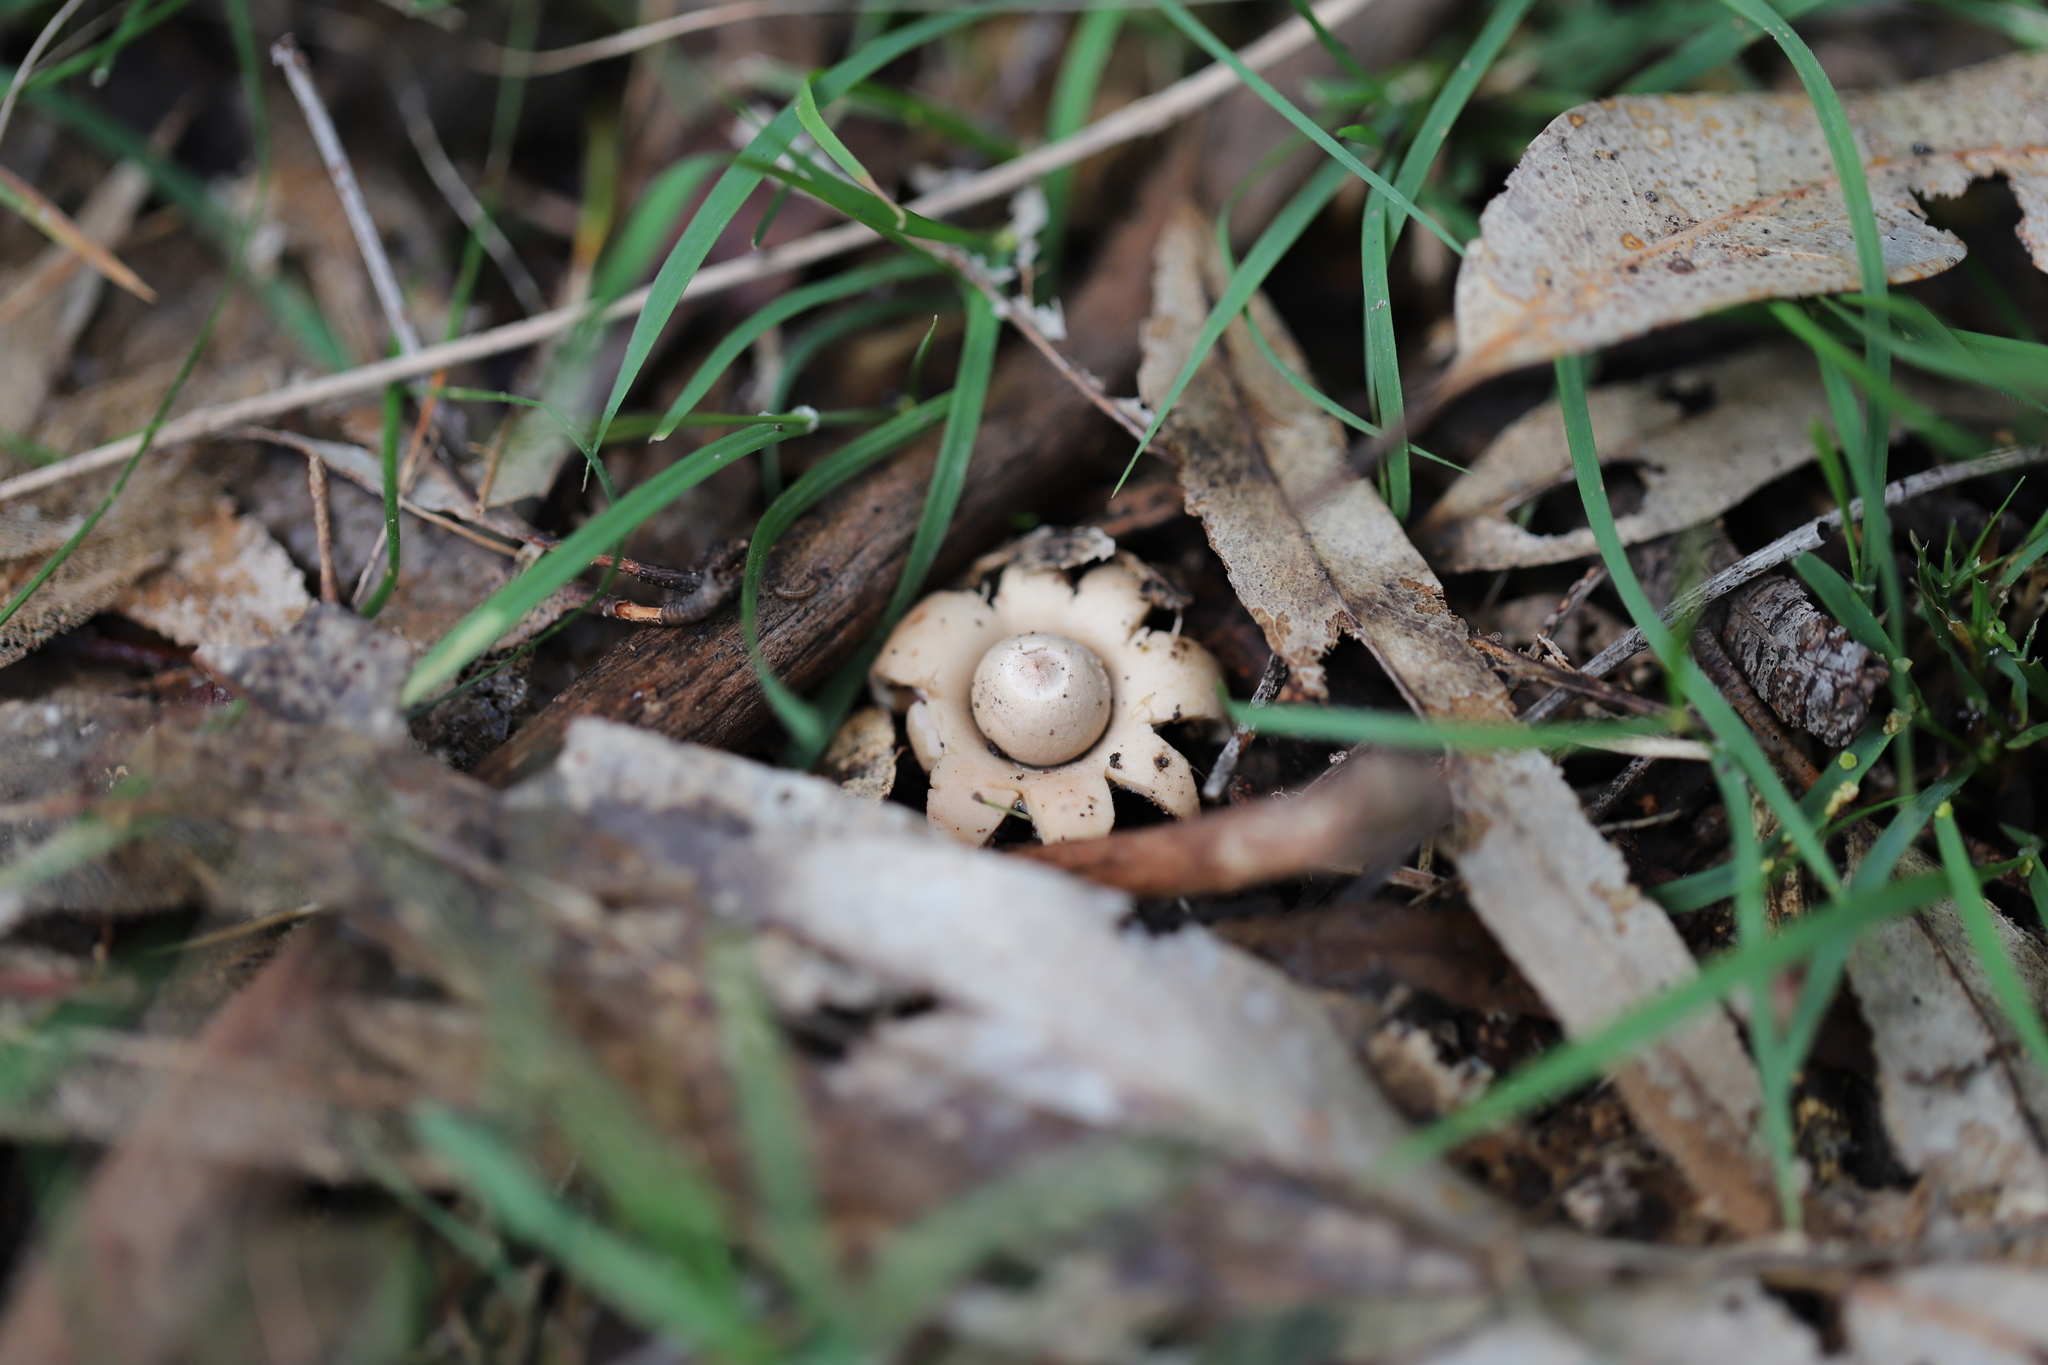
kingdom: Fungi
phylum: Basidiomycota
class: Agaricomycetes
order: Geastrales
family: Geastraceae
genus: Geastrum
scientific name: Geastrum triplex
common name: Collared earthstar
